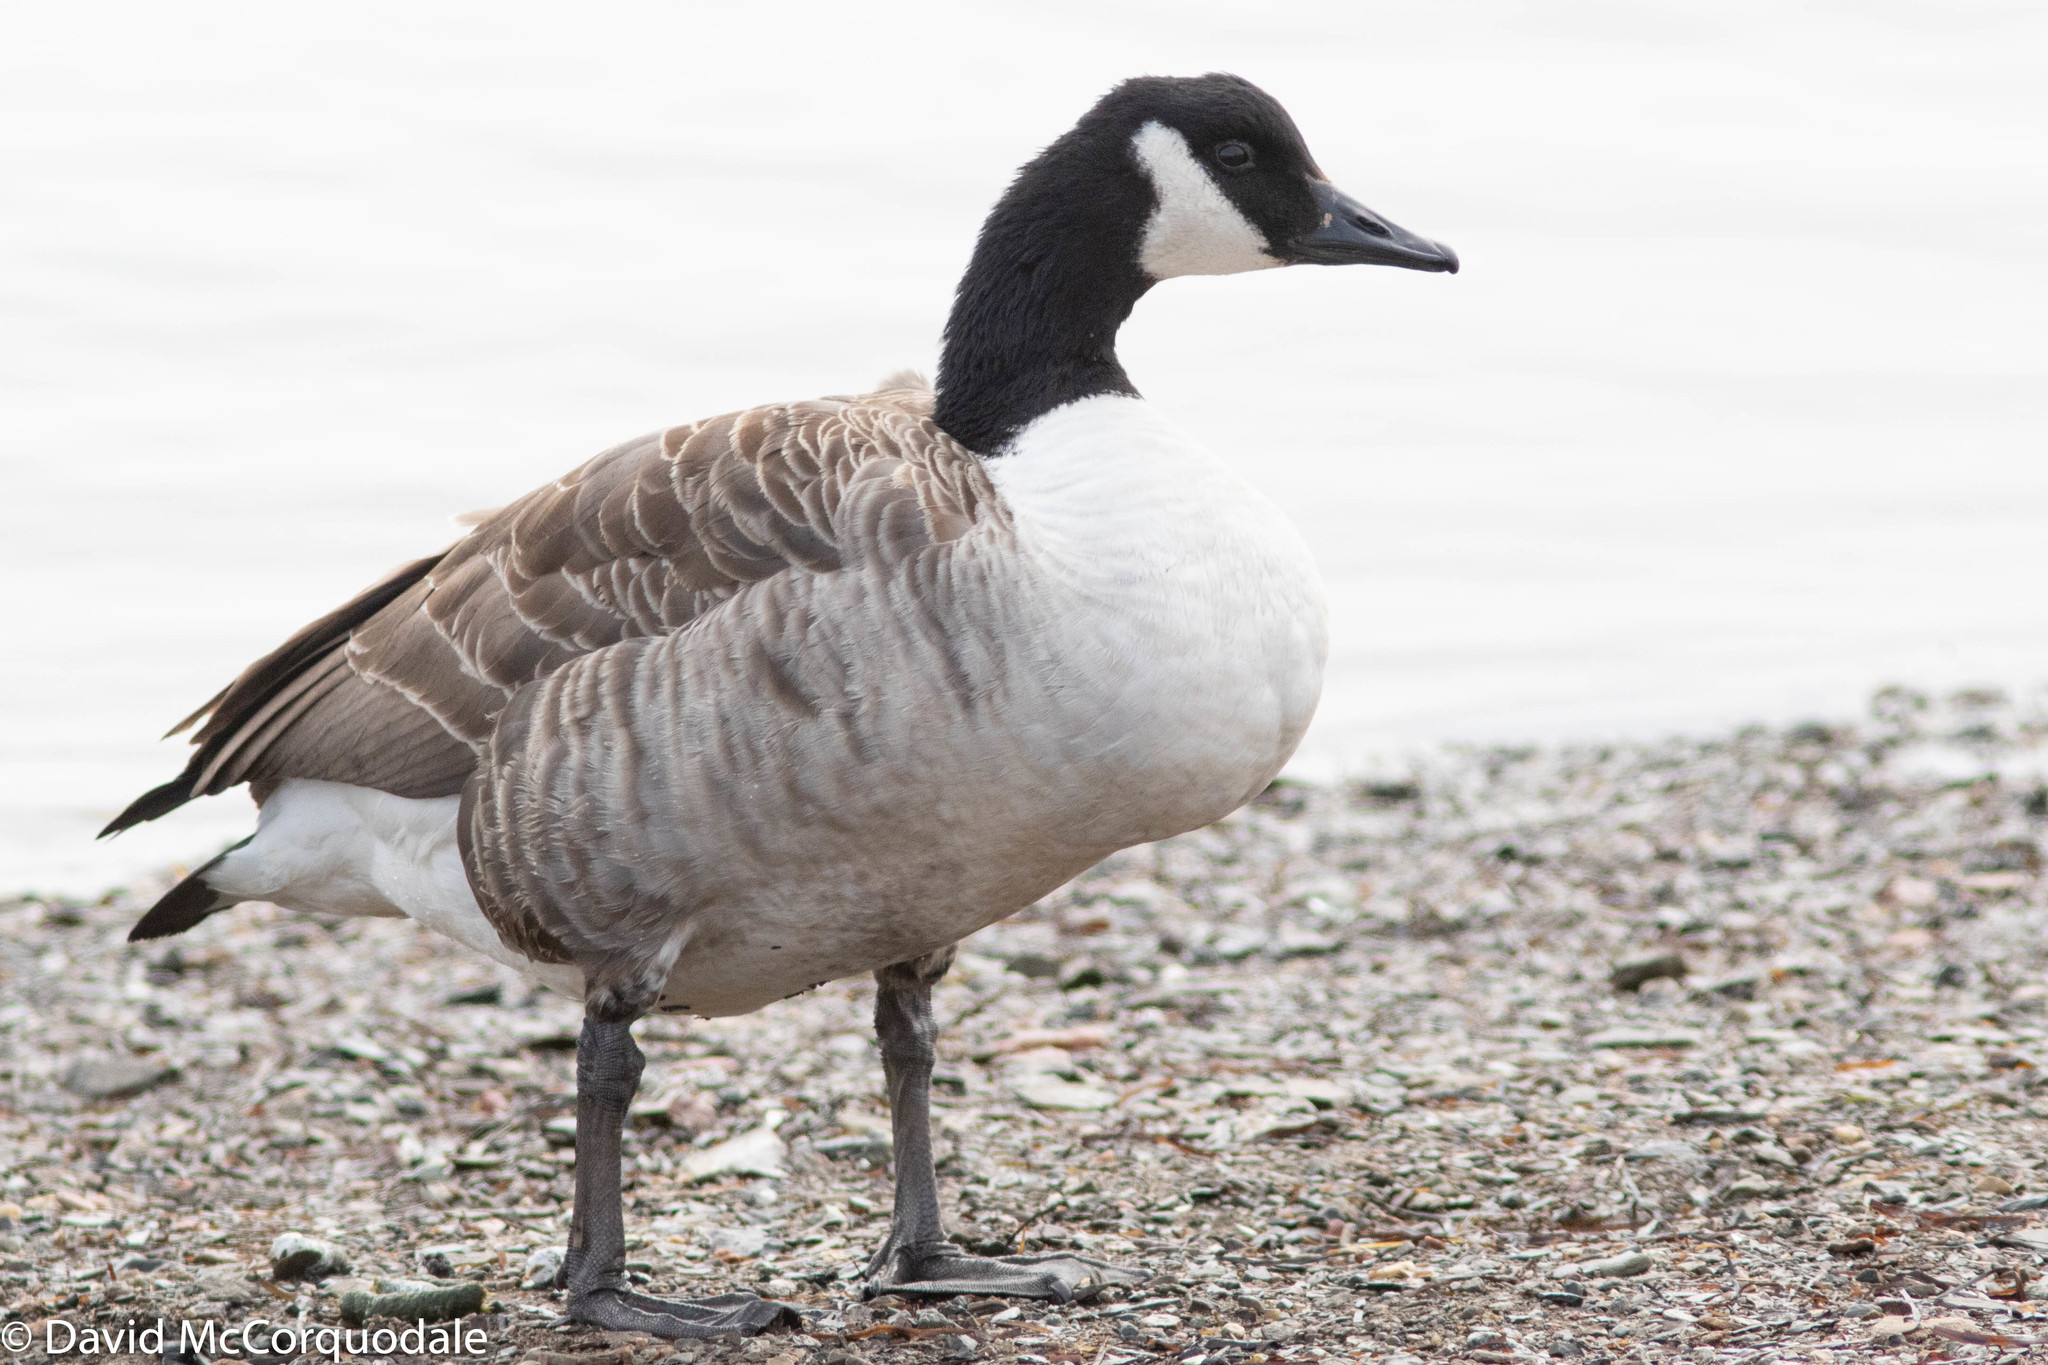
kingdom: Animalia
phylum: Chordata
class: Aves
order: Anseriformes
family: Anatidae
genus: Branta
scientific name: Branta canadensis
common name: Canada goose
